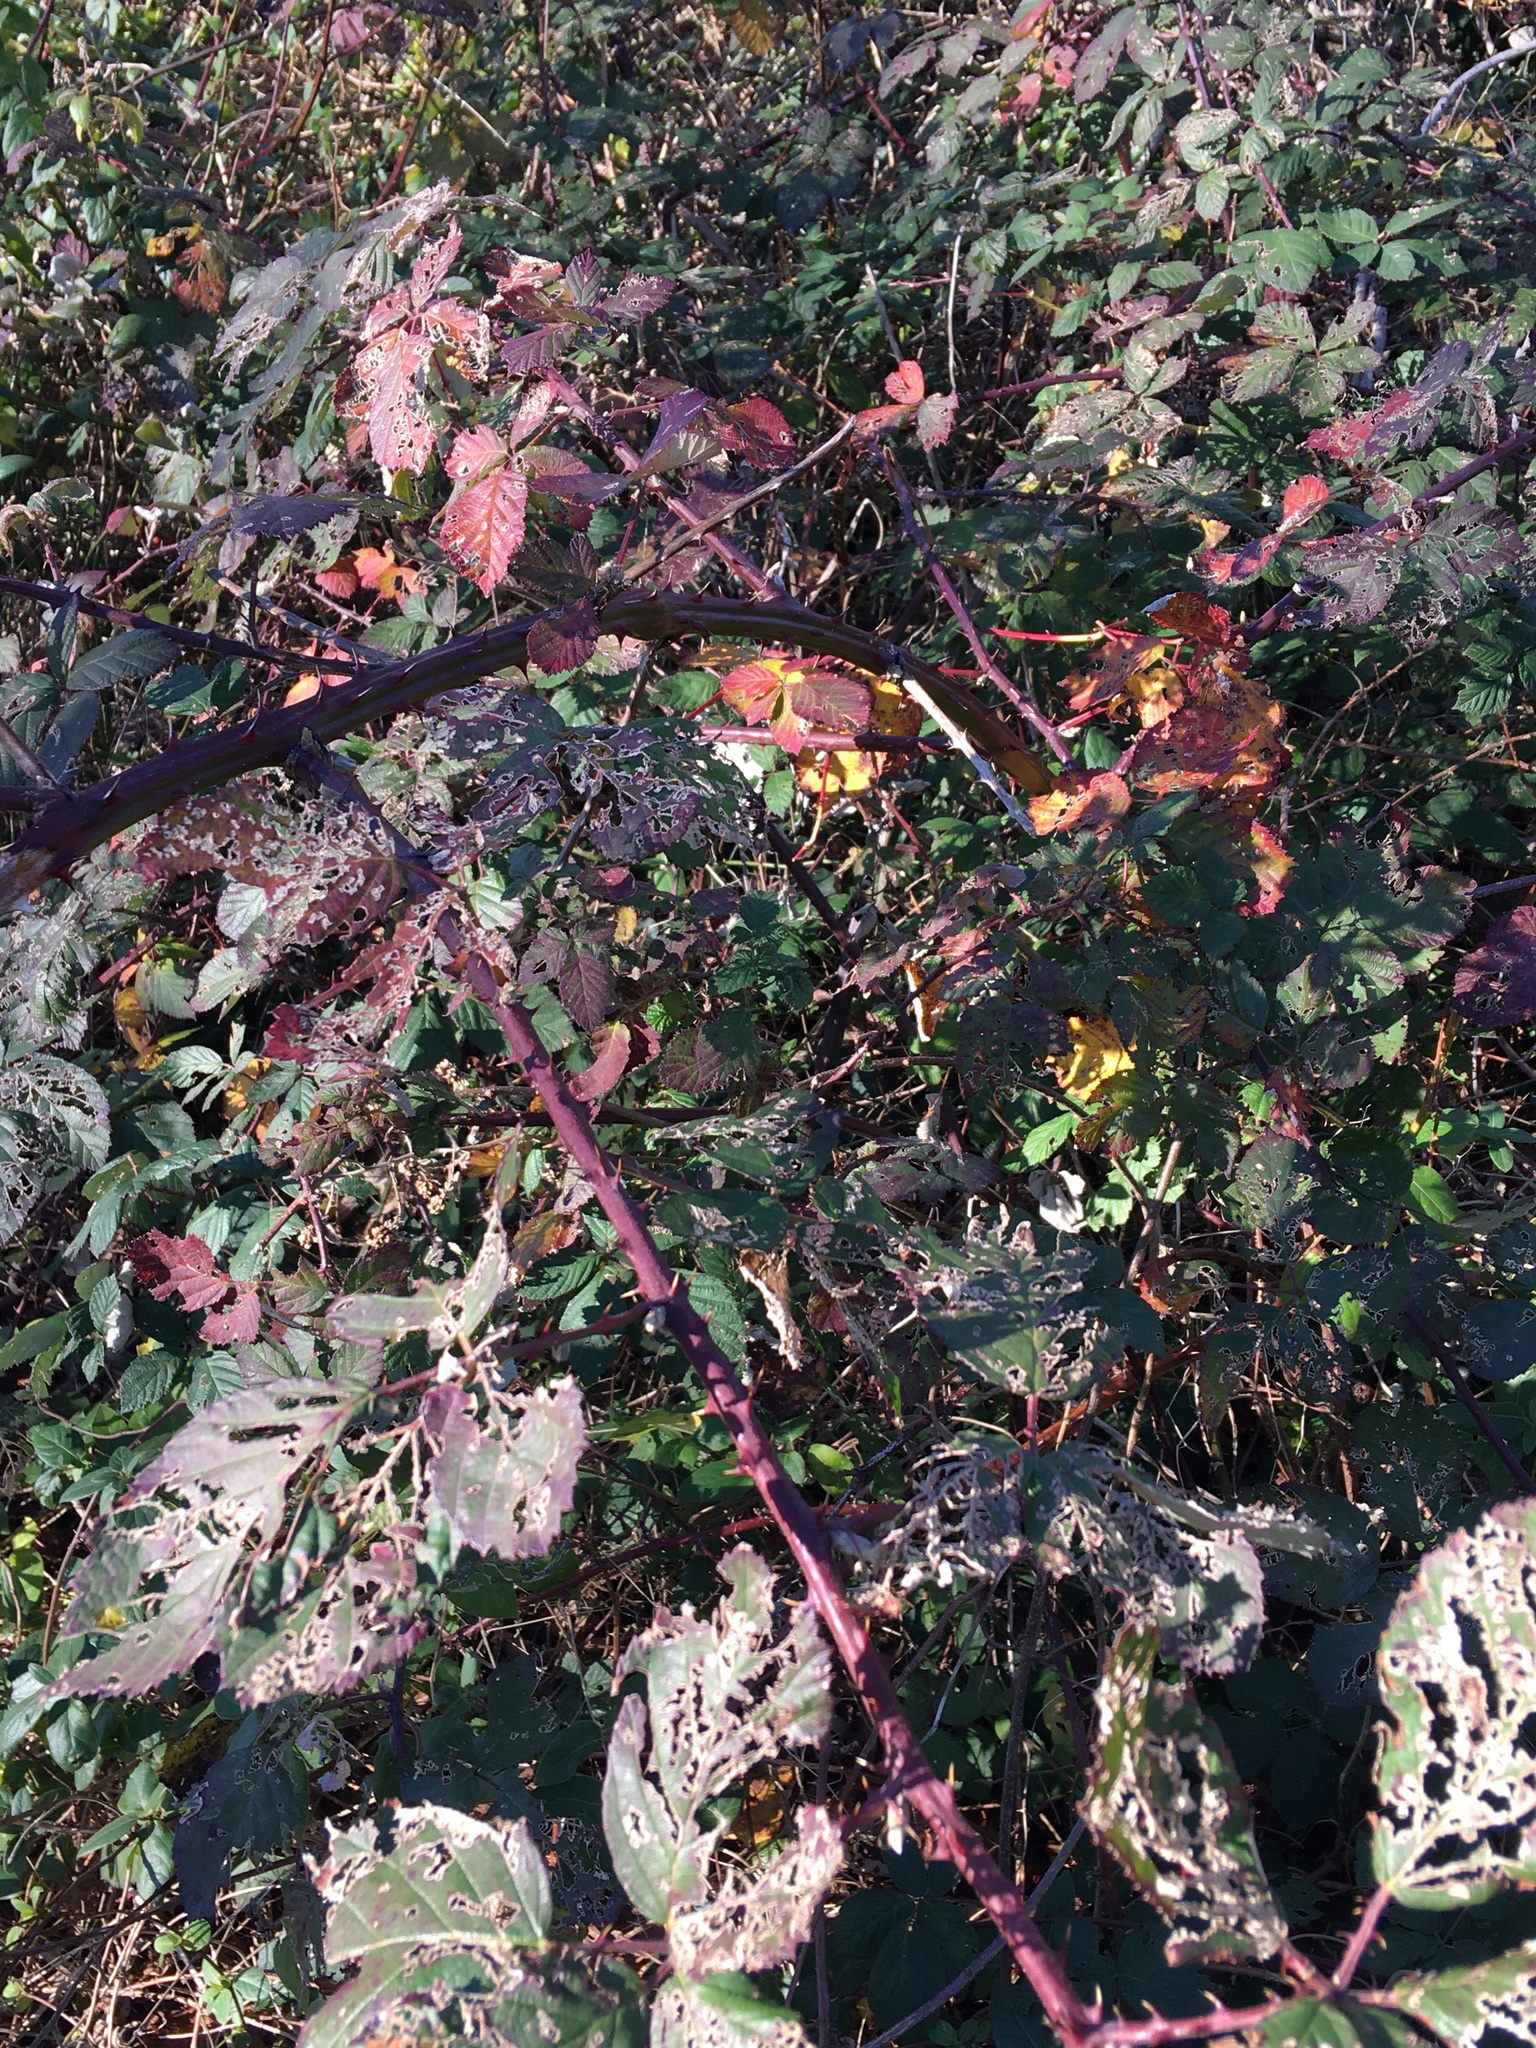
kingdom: Plantae
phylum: Tracheophyta
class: Magnoliopsida
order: Rosales
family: Rosaceae
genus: Rubus
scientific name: Rubus bifrons
